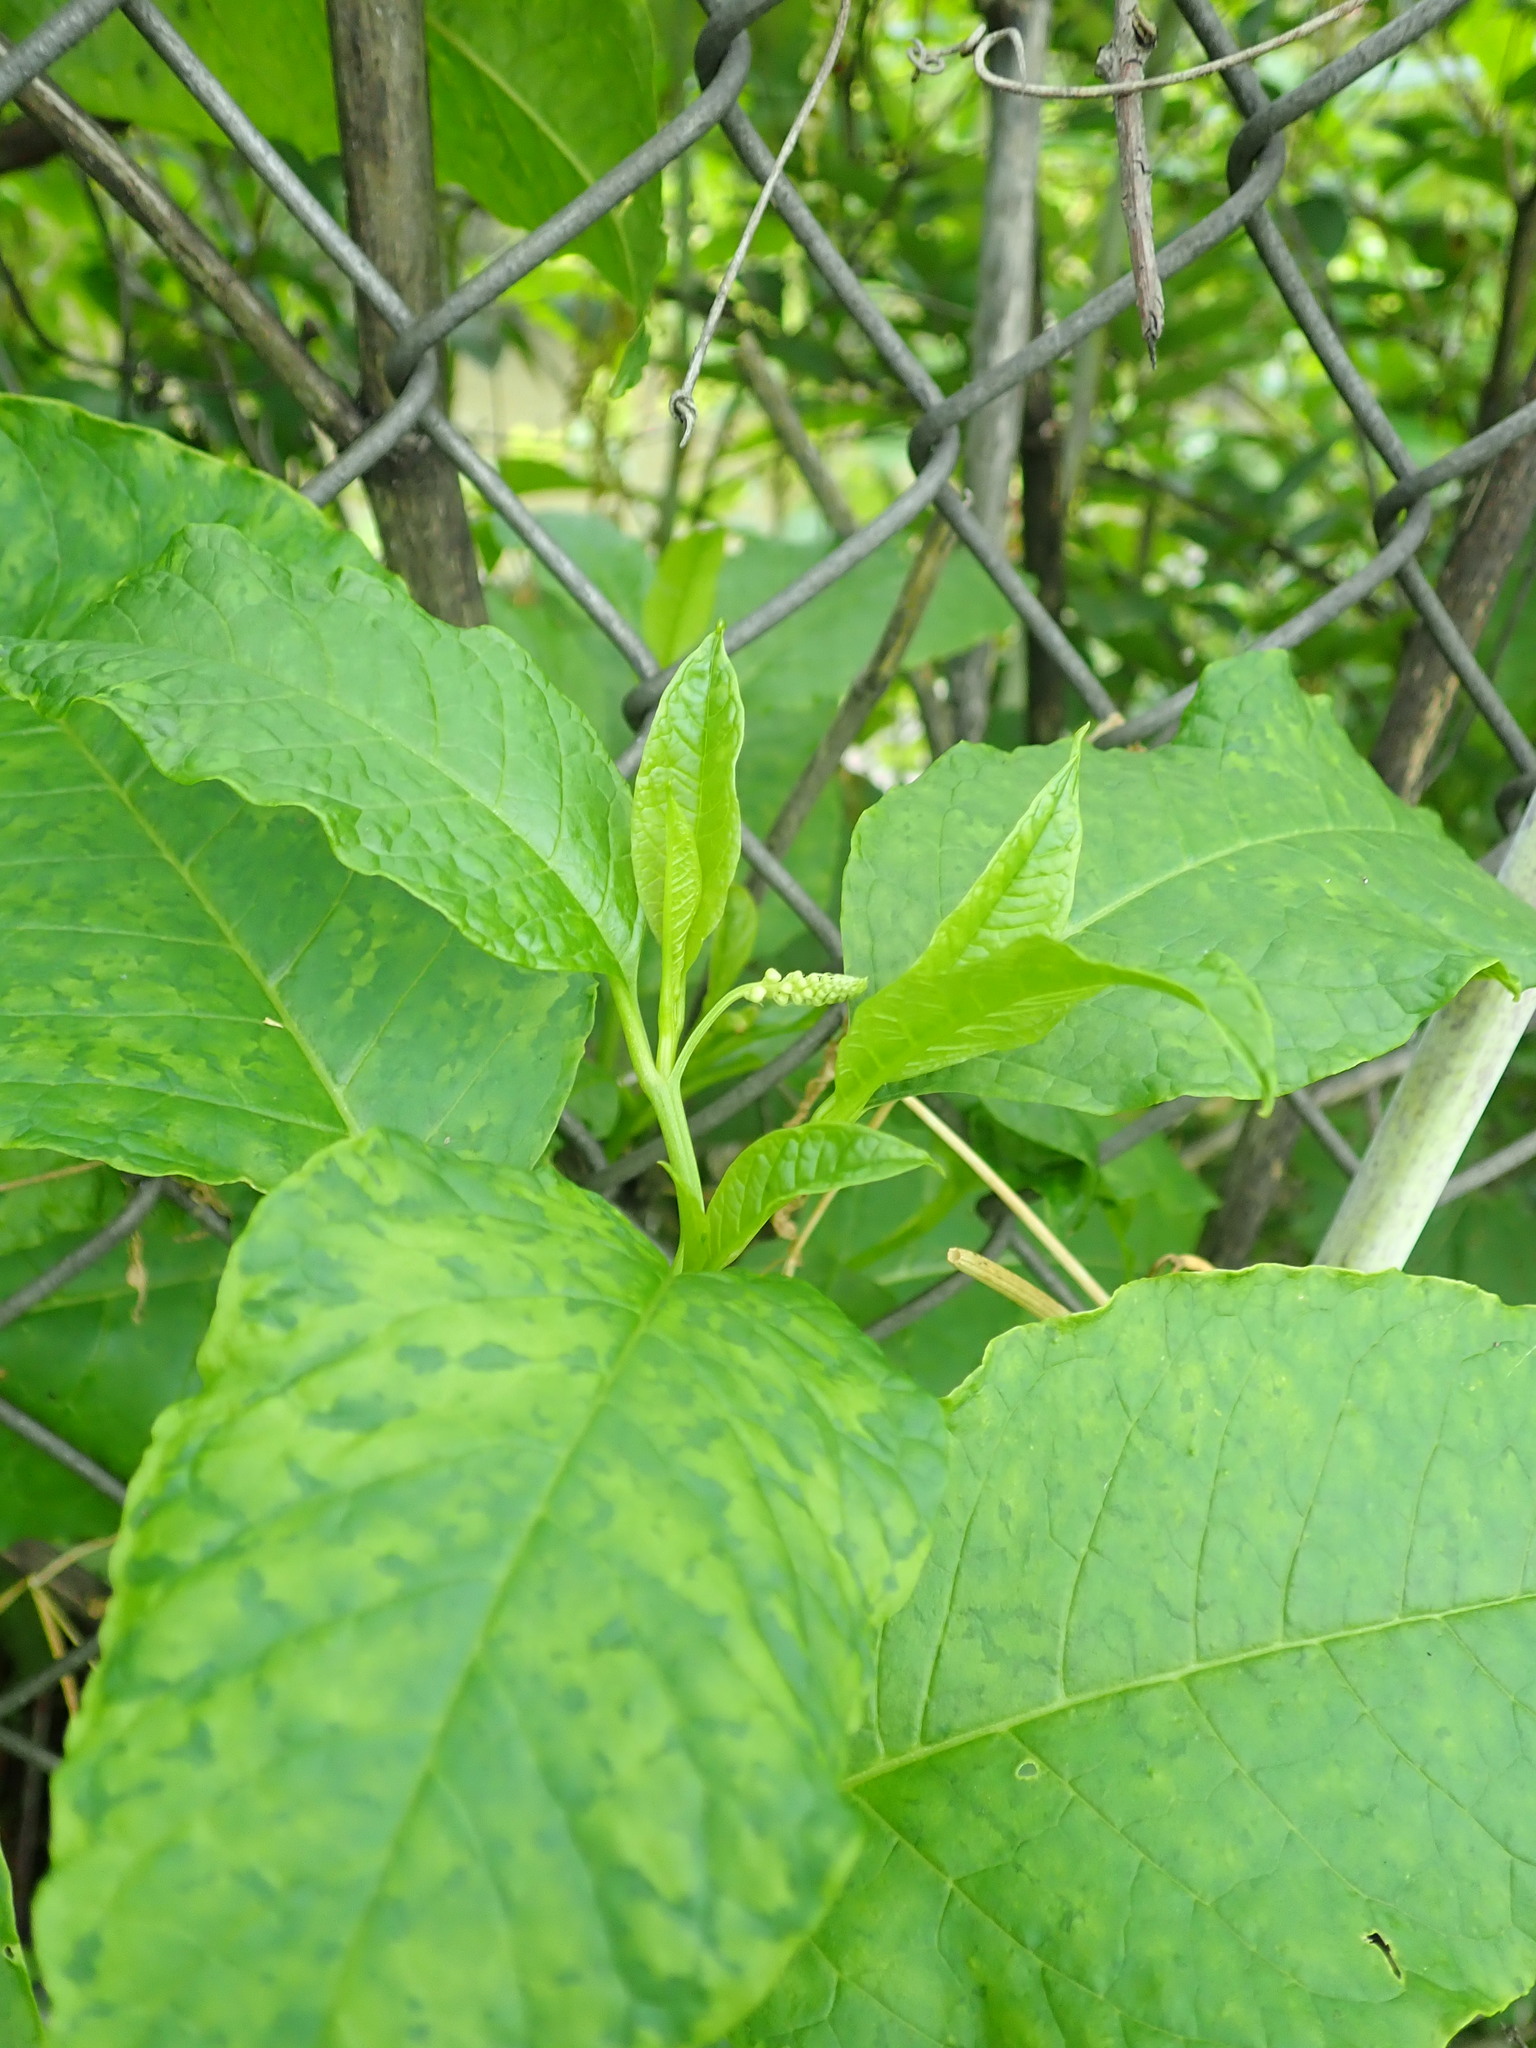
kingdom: Plantae
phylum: Tracheophyta
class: Magnoliopsida
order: Caryophyllales
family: Phytolaccaceae
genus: Phytolacca
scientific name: Phytolacca americana
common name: American pokeweed
